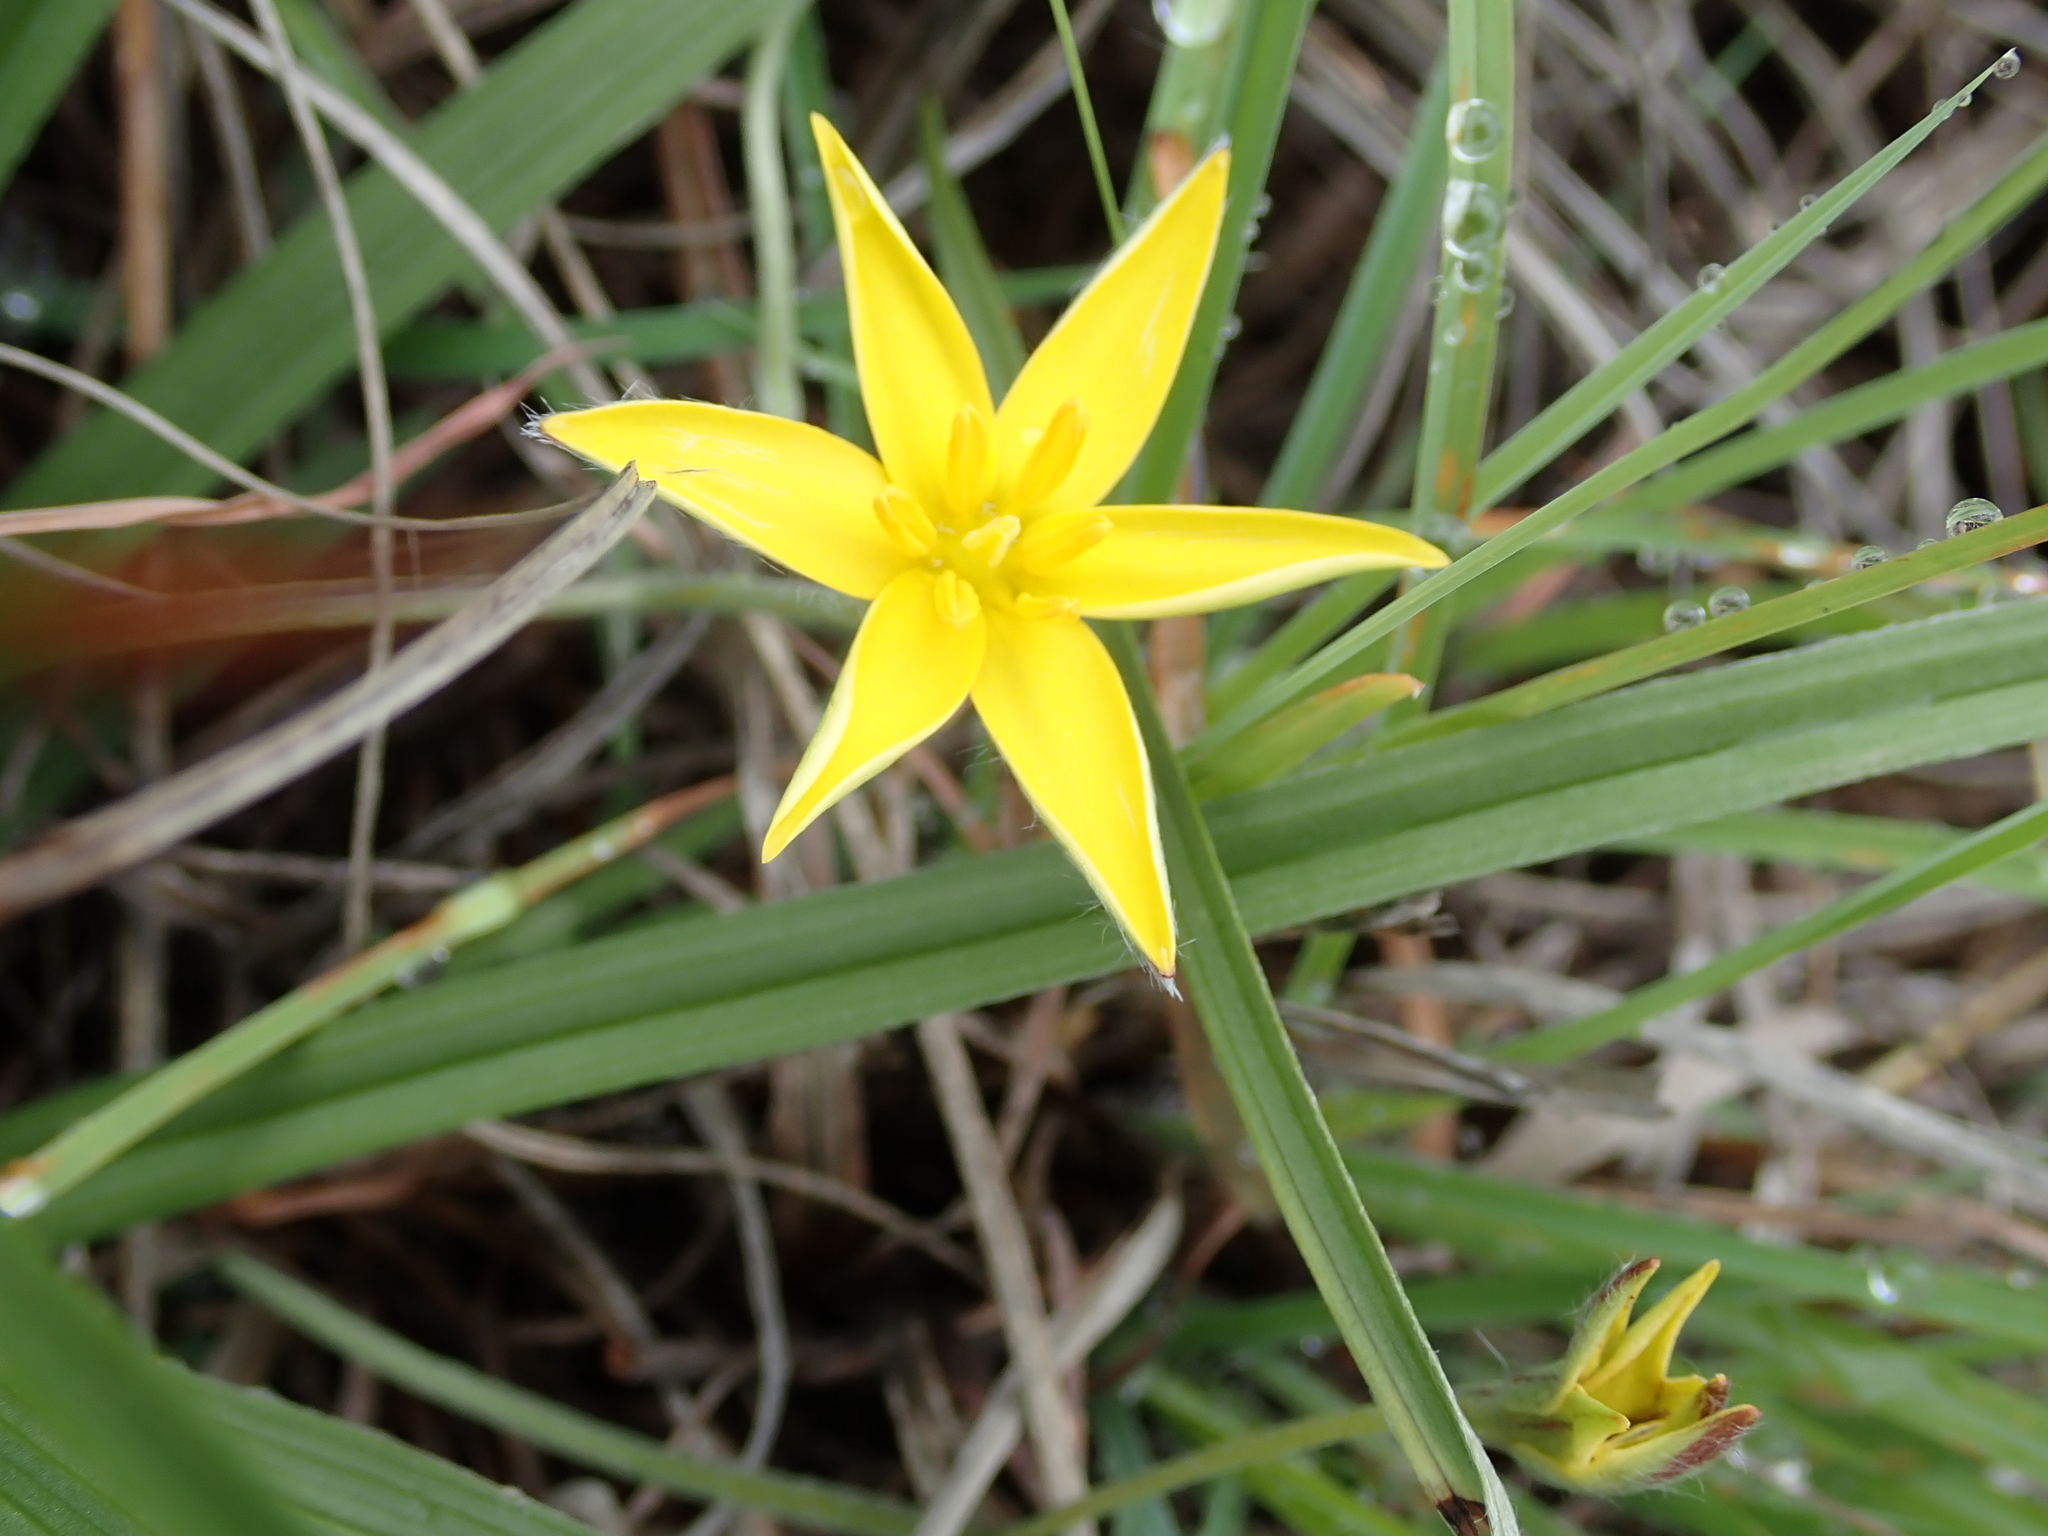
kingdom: Plantae
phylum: Tracheophyta
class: Liliopsida
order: Asparagales
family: Hypoxidaceae
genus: Hypoxis
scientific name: Hypoxis angustifolia
